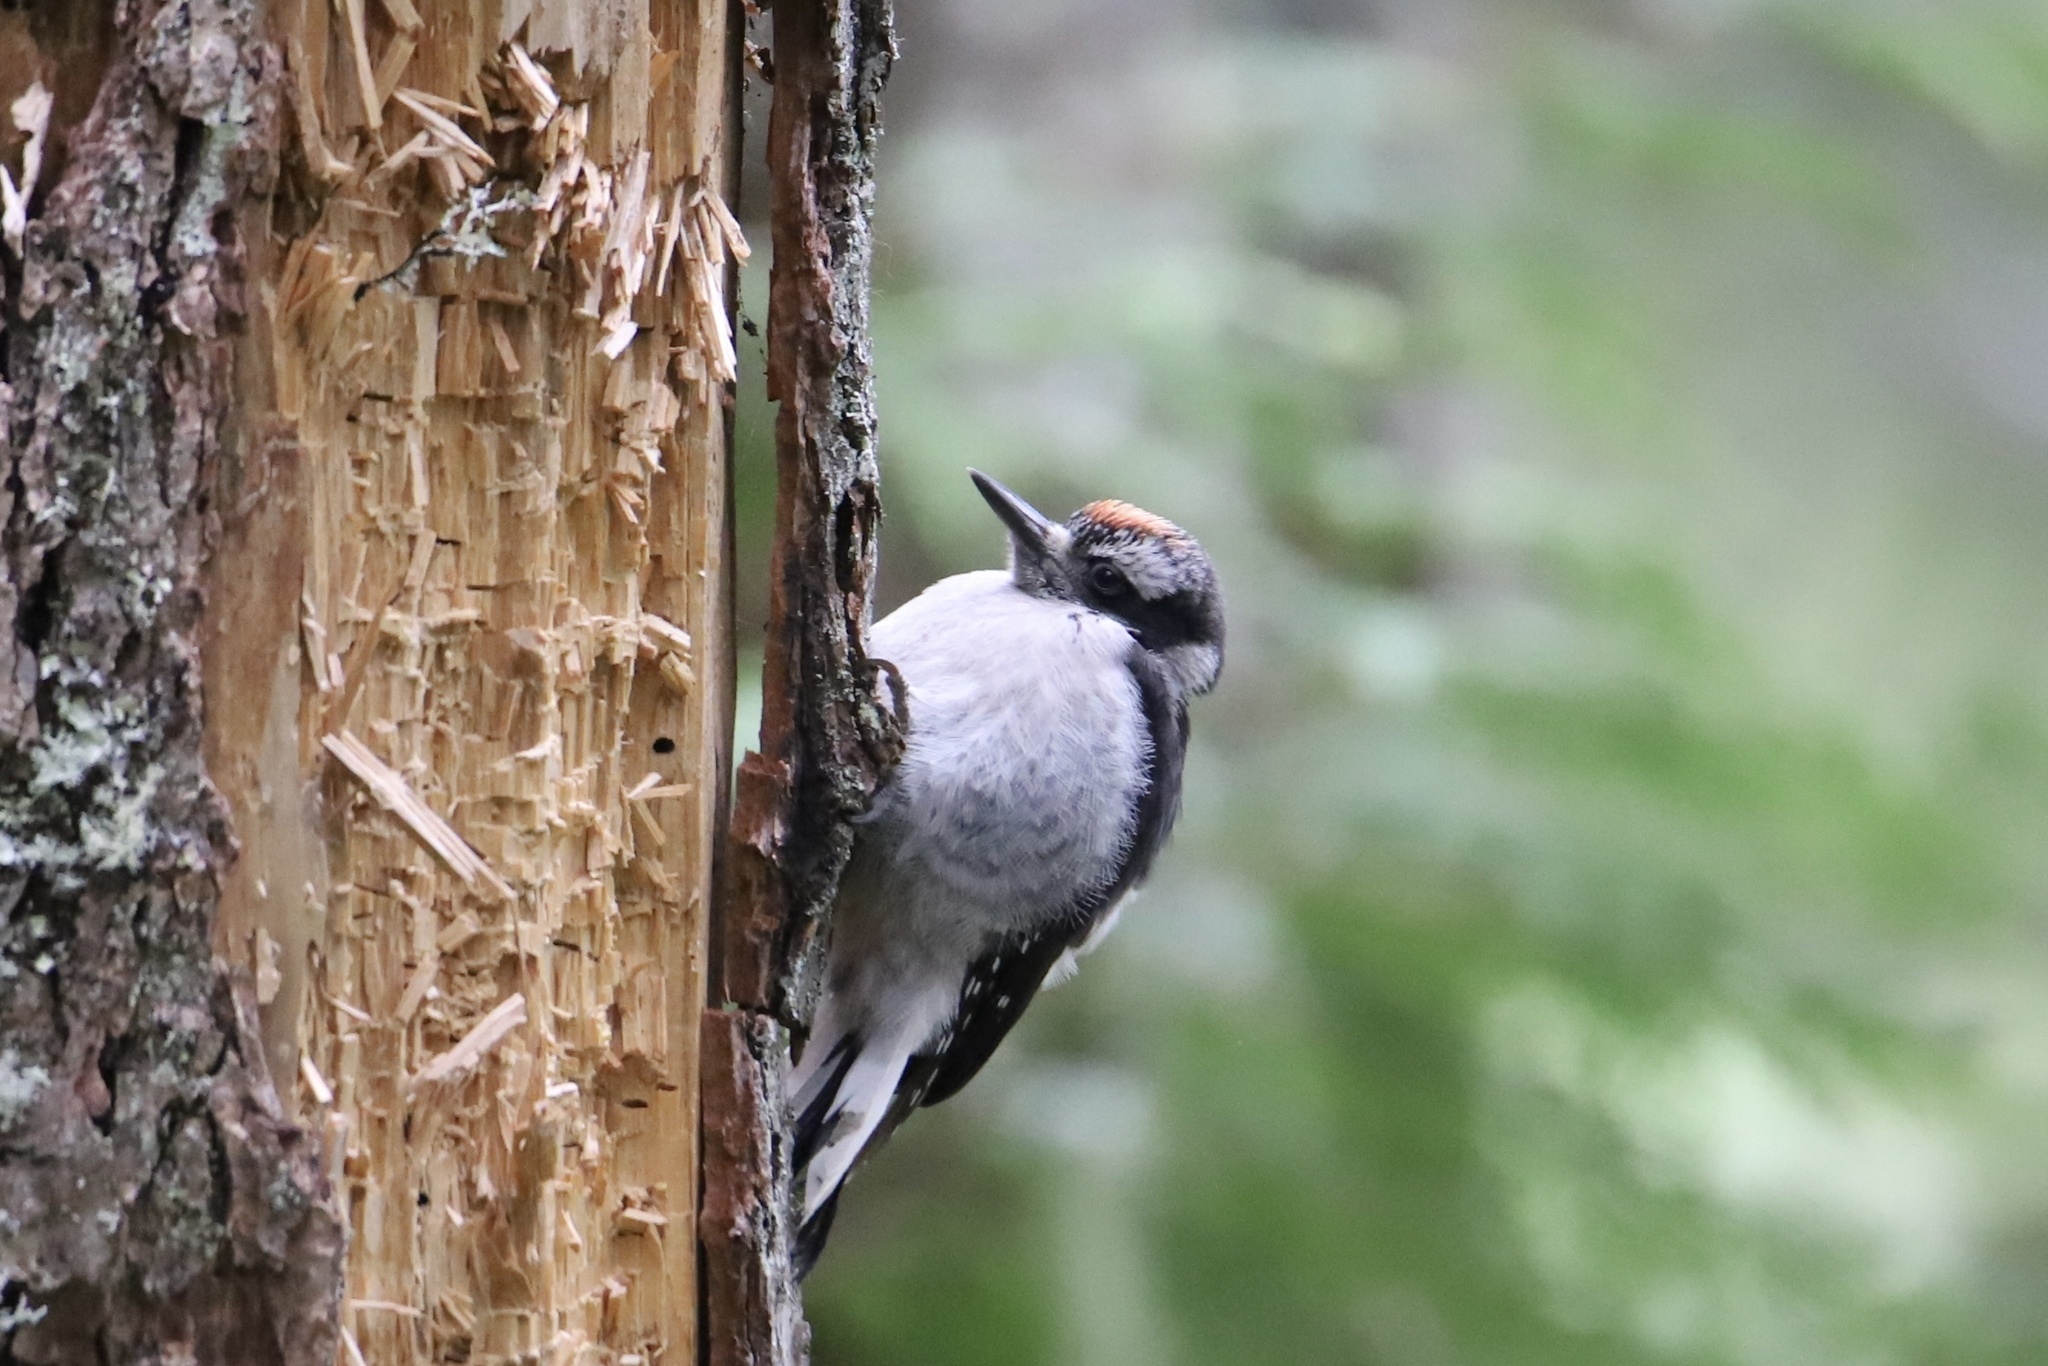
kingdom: Animalia
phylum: Chordata
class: Aves
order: Piciformes
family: Picidae
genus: Leuconotopicus
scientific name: Leuconotopicus villosus
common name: Hairy woodpecker
